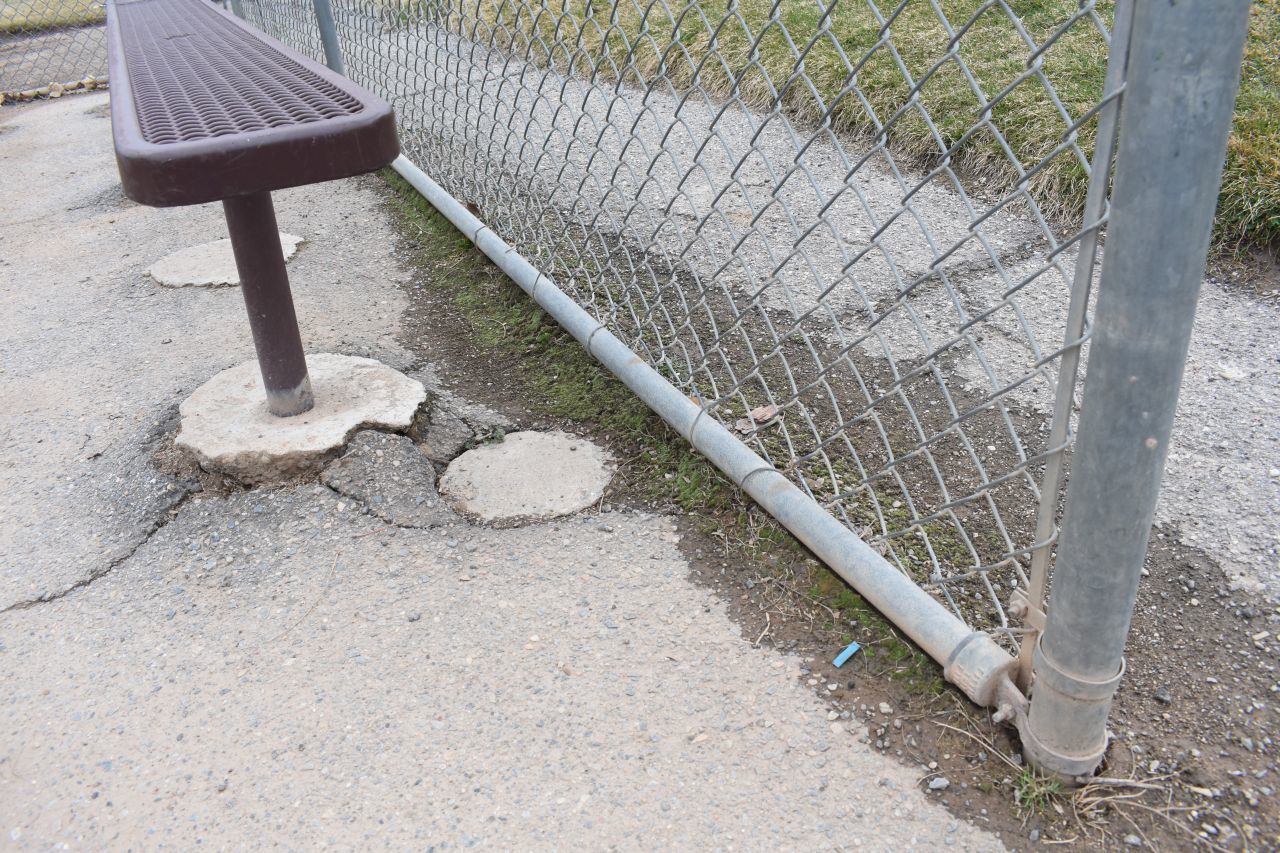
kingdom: Plantae
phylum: Bryophyta
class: Bryopsida
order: Bryales
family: Bryaceae
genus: Bryum
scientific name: Bryum argenteum
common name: Silver-moss
